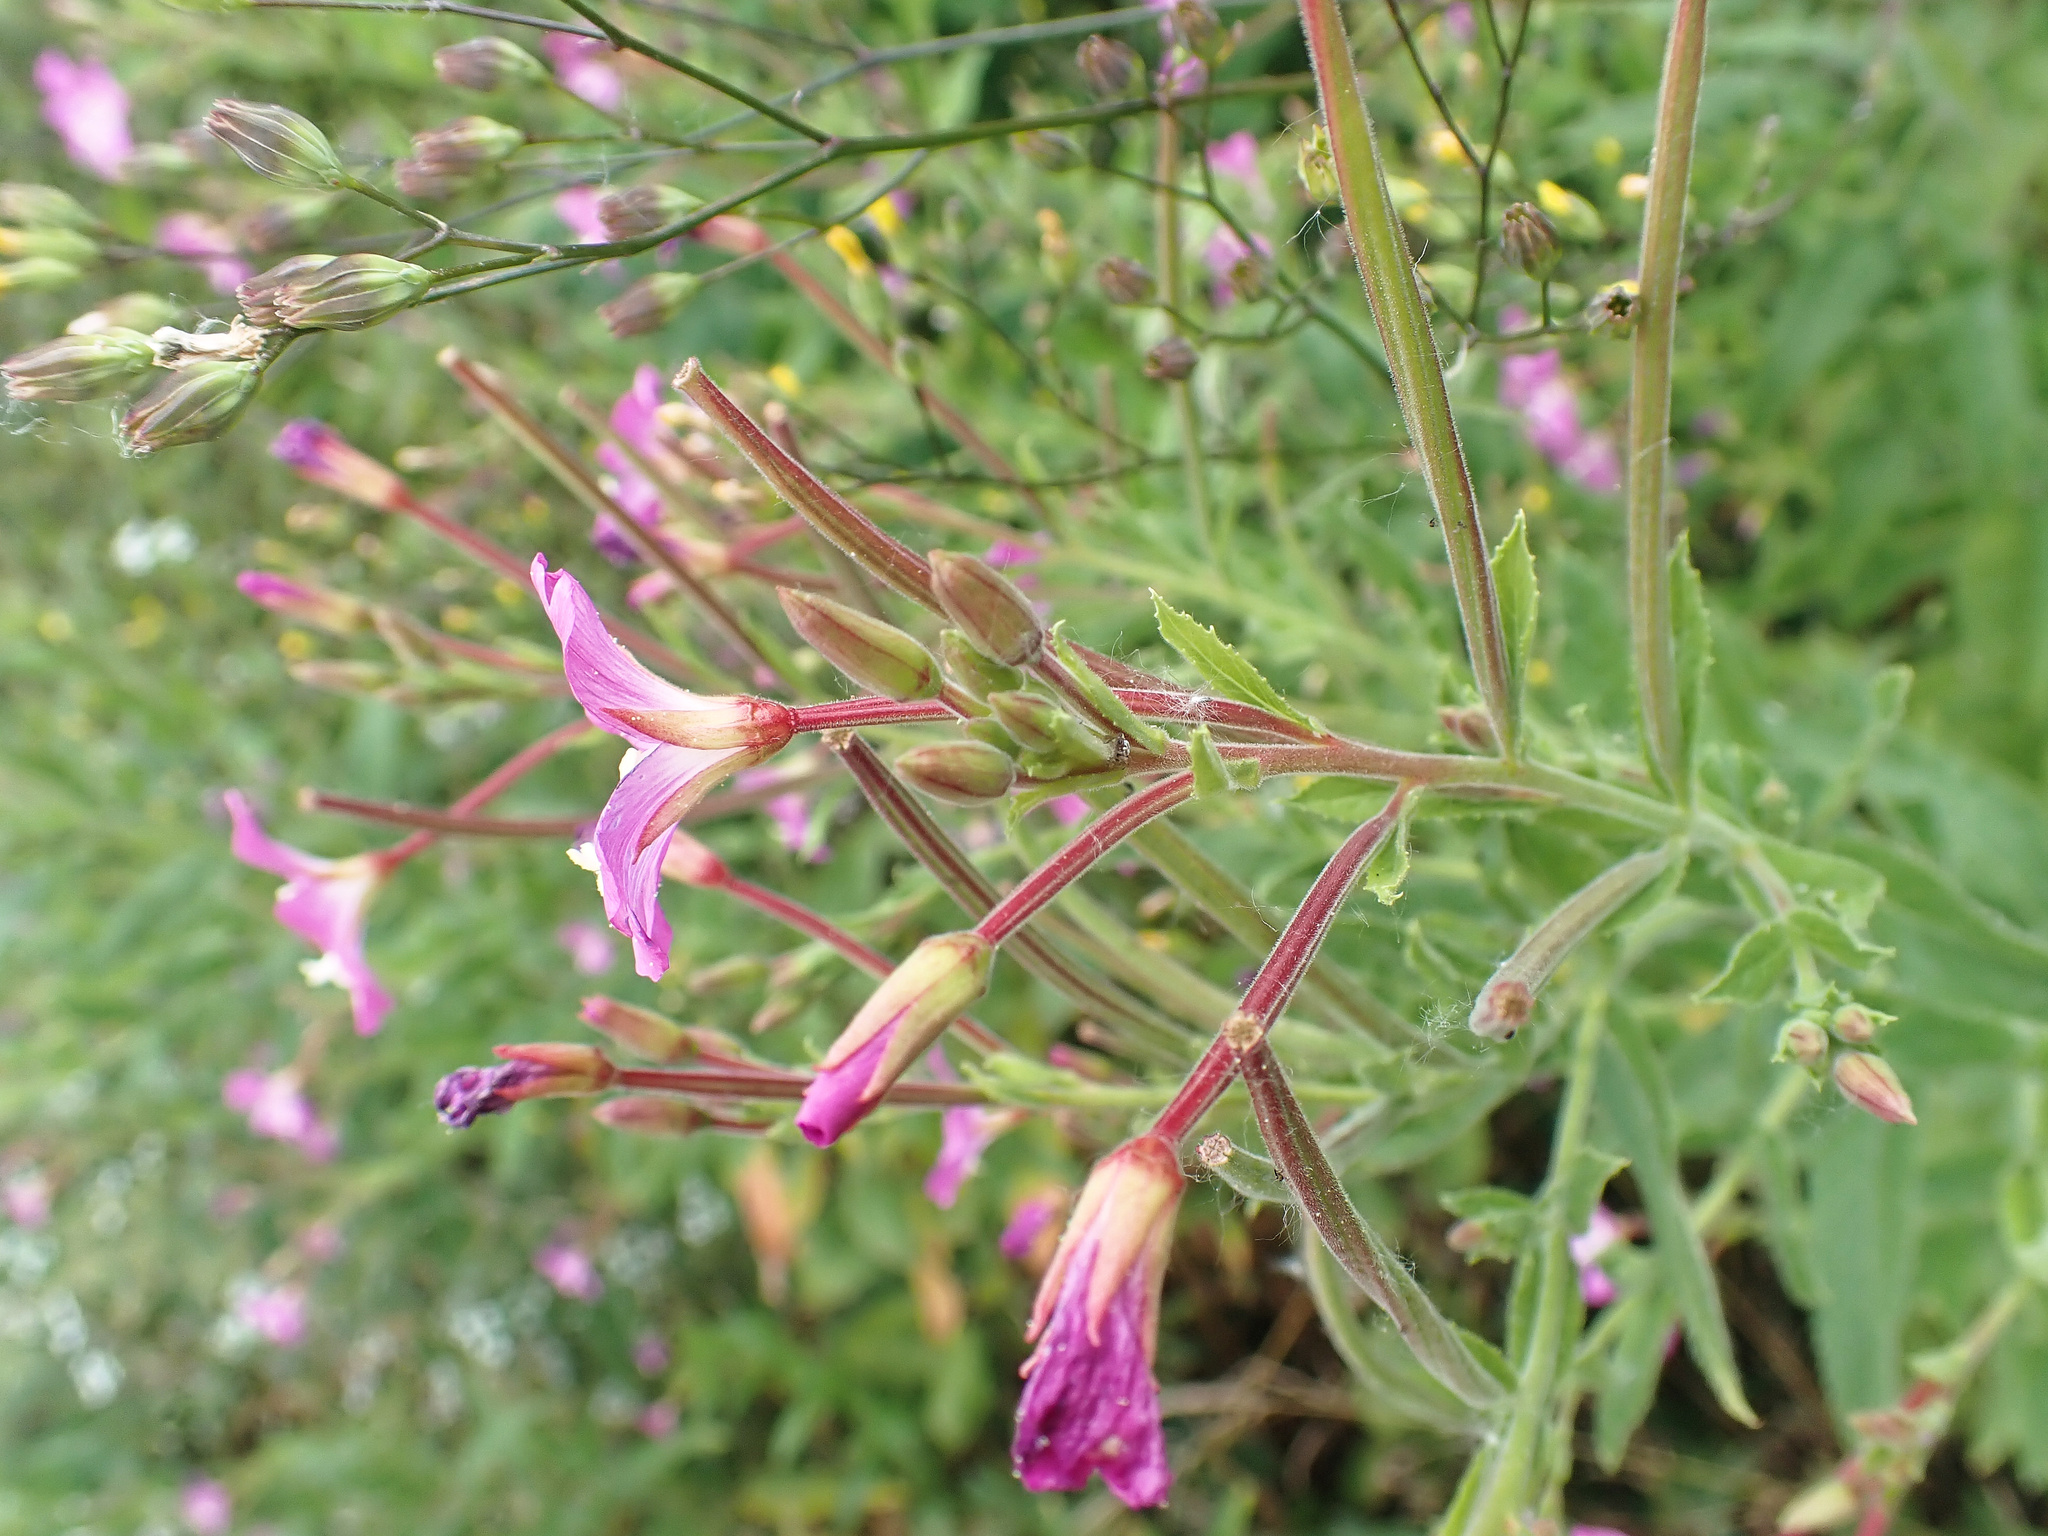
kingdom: Plantae
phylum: Tracheophyta
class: Magnoliopsida
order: Myrtales
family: Onagraceae
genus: Epilobium
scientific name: Epilobium hirsutum
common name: Great willowherb
